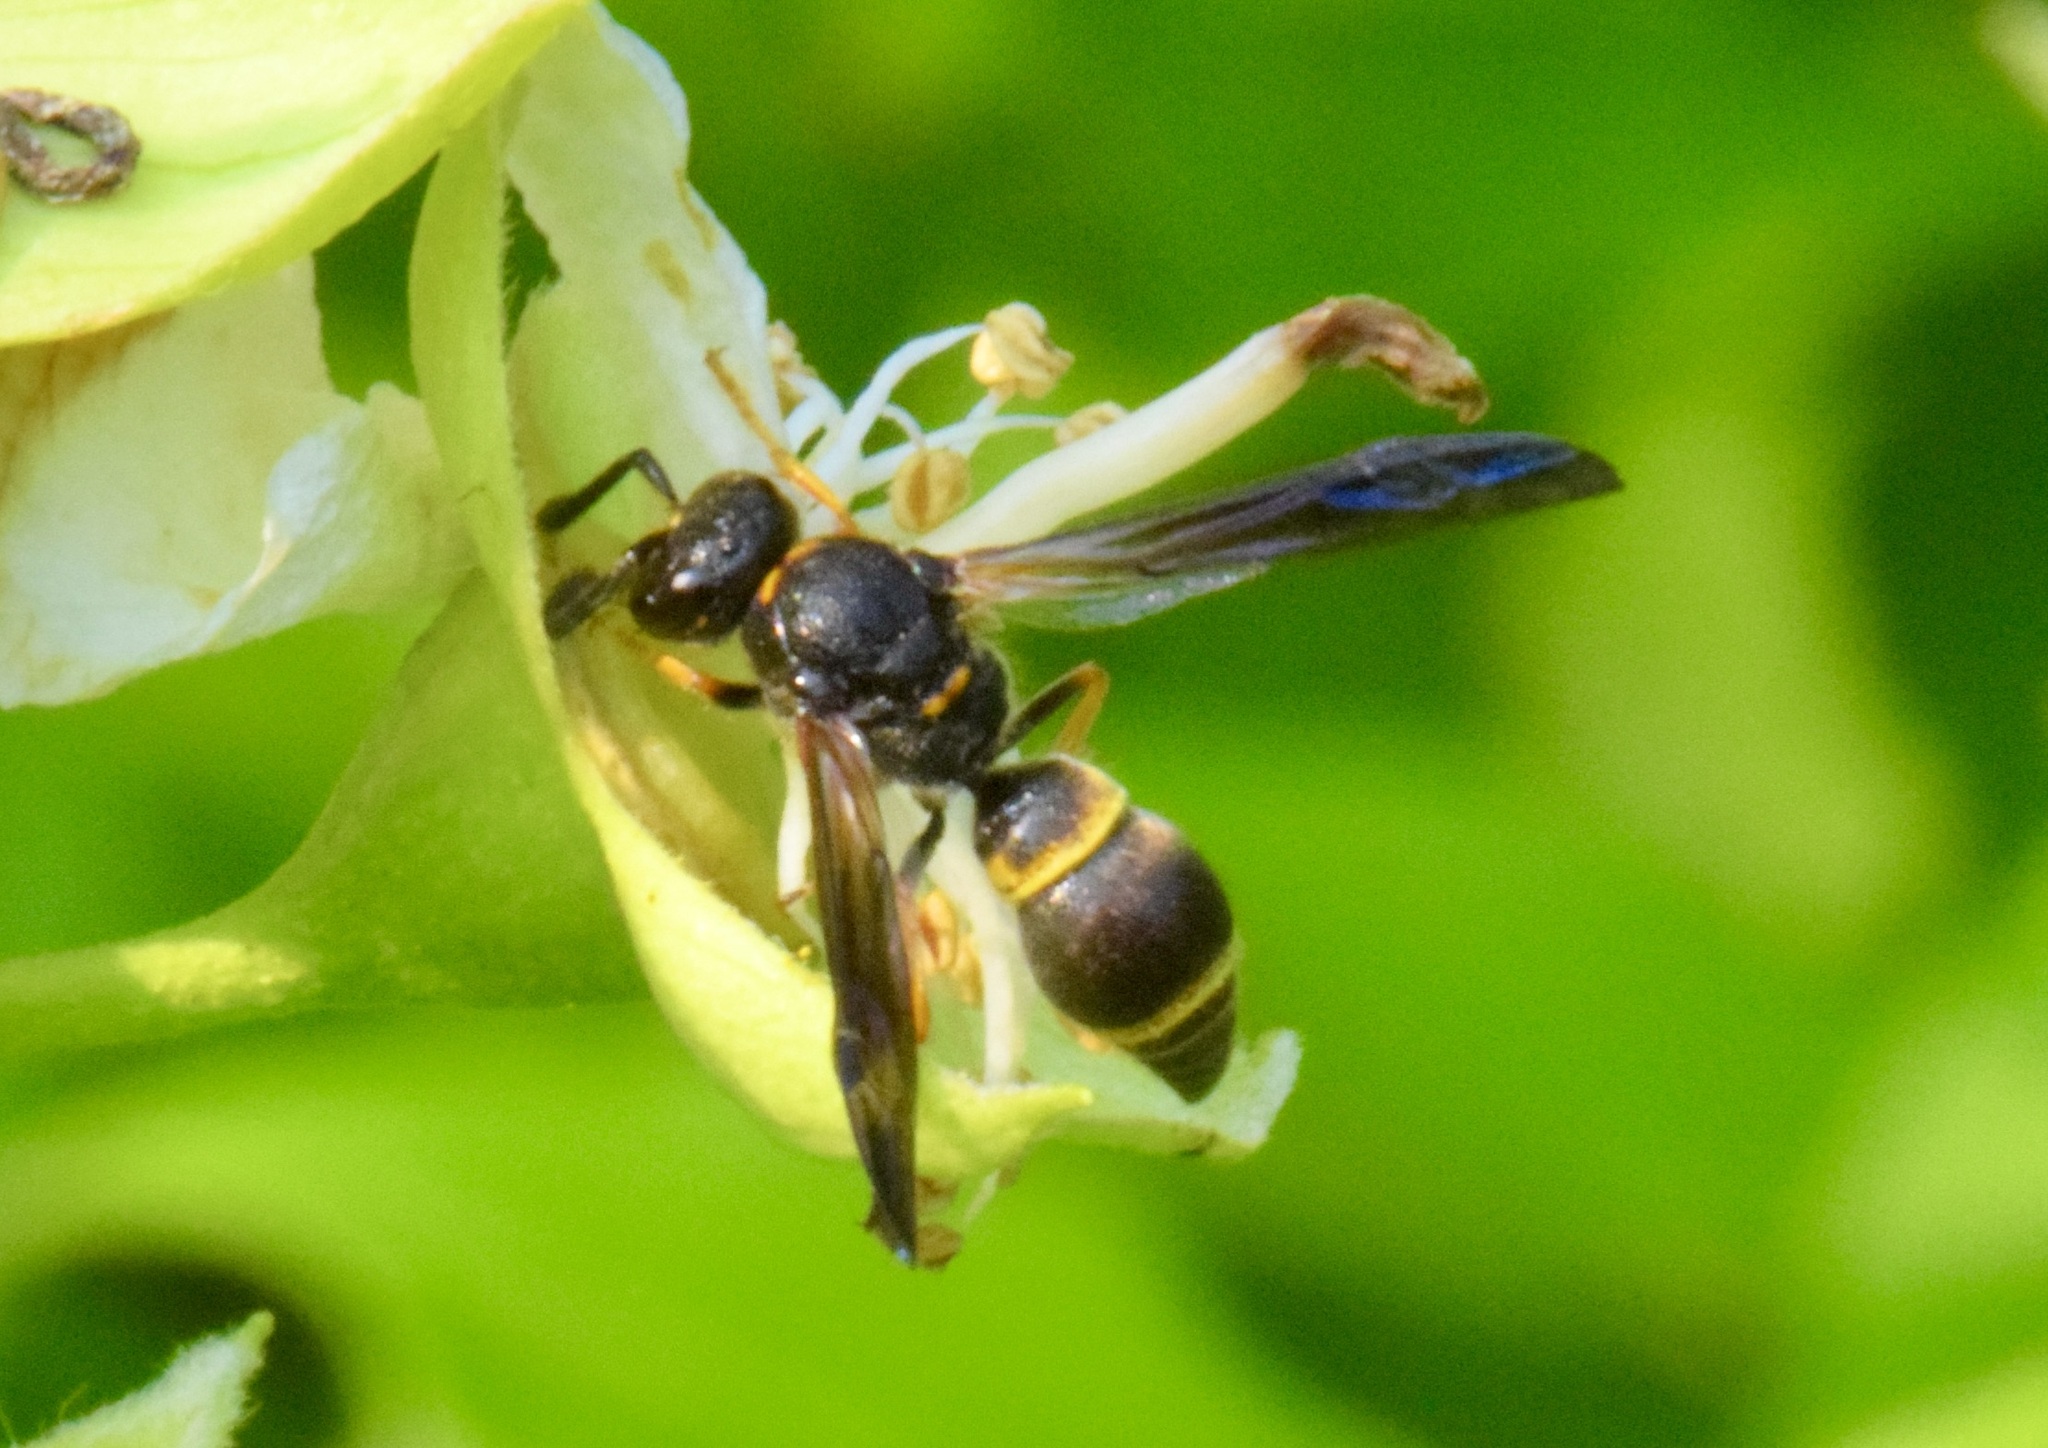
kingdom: Animalia
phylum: Arthropoda
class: Insecta
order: Hymenoptera
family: Vespidae
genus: Ancistrocerus
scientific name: Ancistrocerus unifasciatus
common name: One-banded mason wasp
